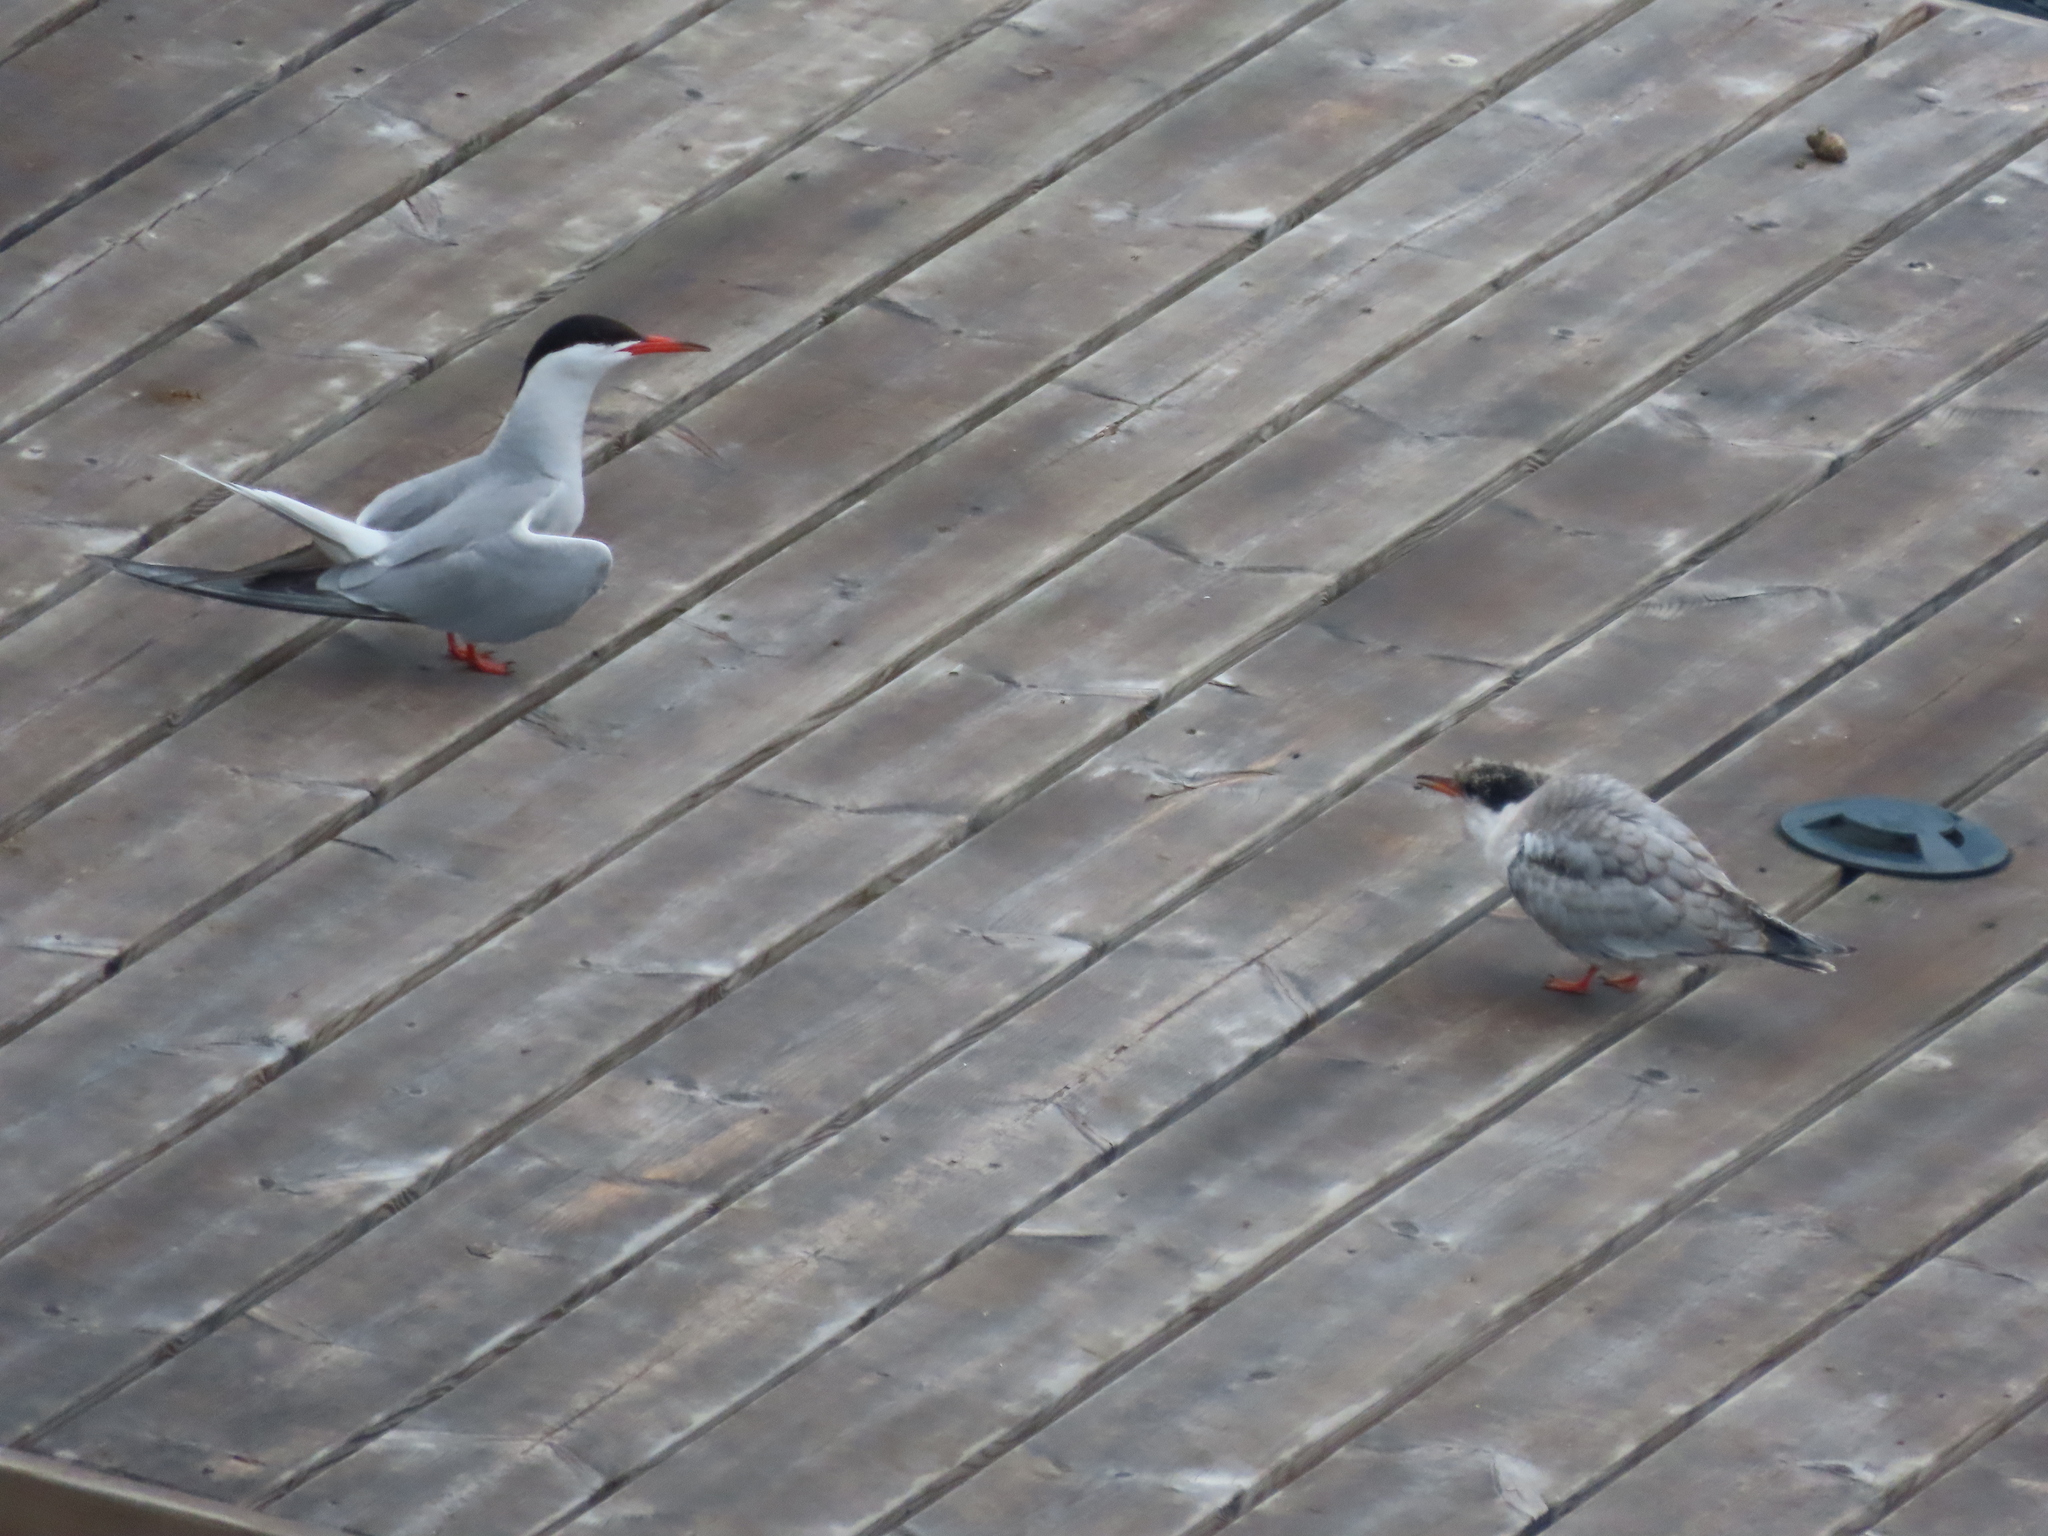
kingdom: Animalia
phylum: Chordata
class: Aves
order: Charadriiformes
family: Laridae
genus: Sterna
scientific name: Sterna hirundo
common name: Common tern
